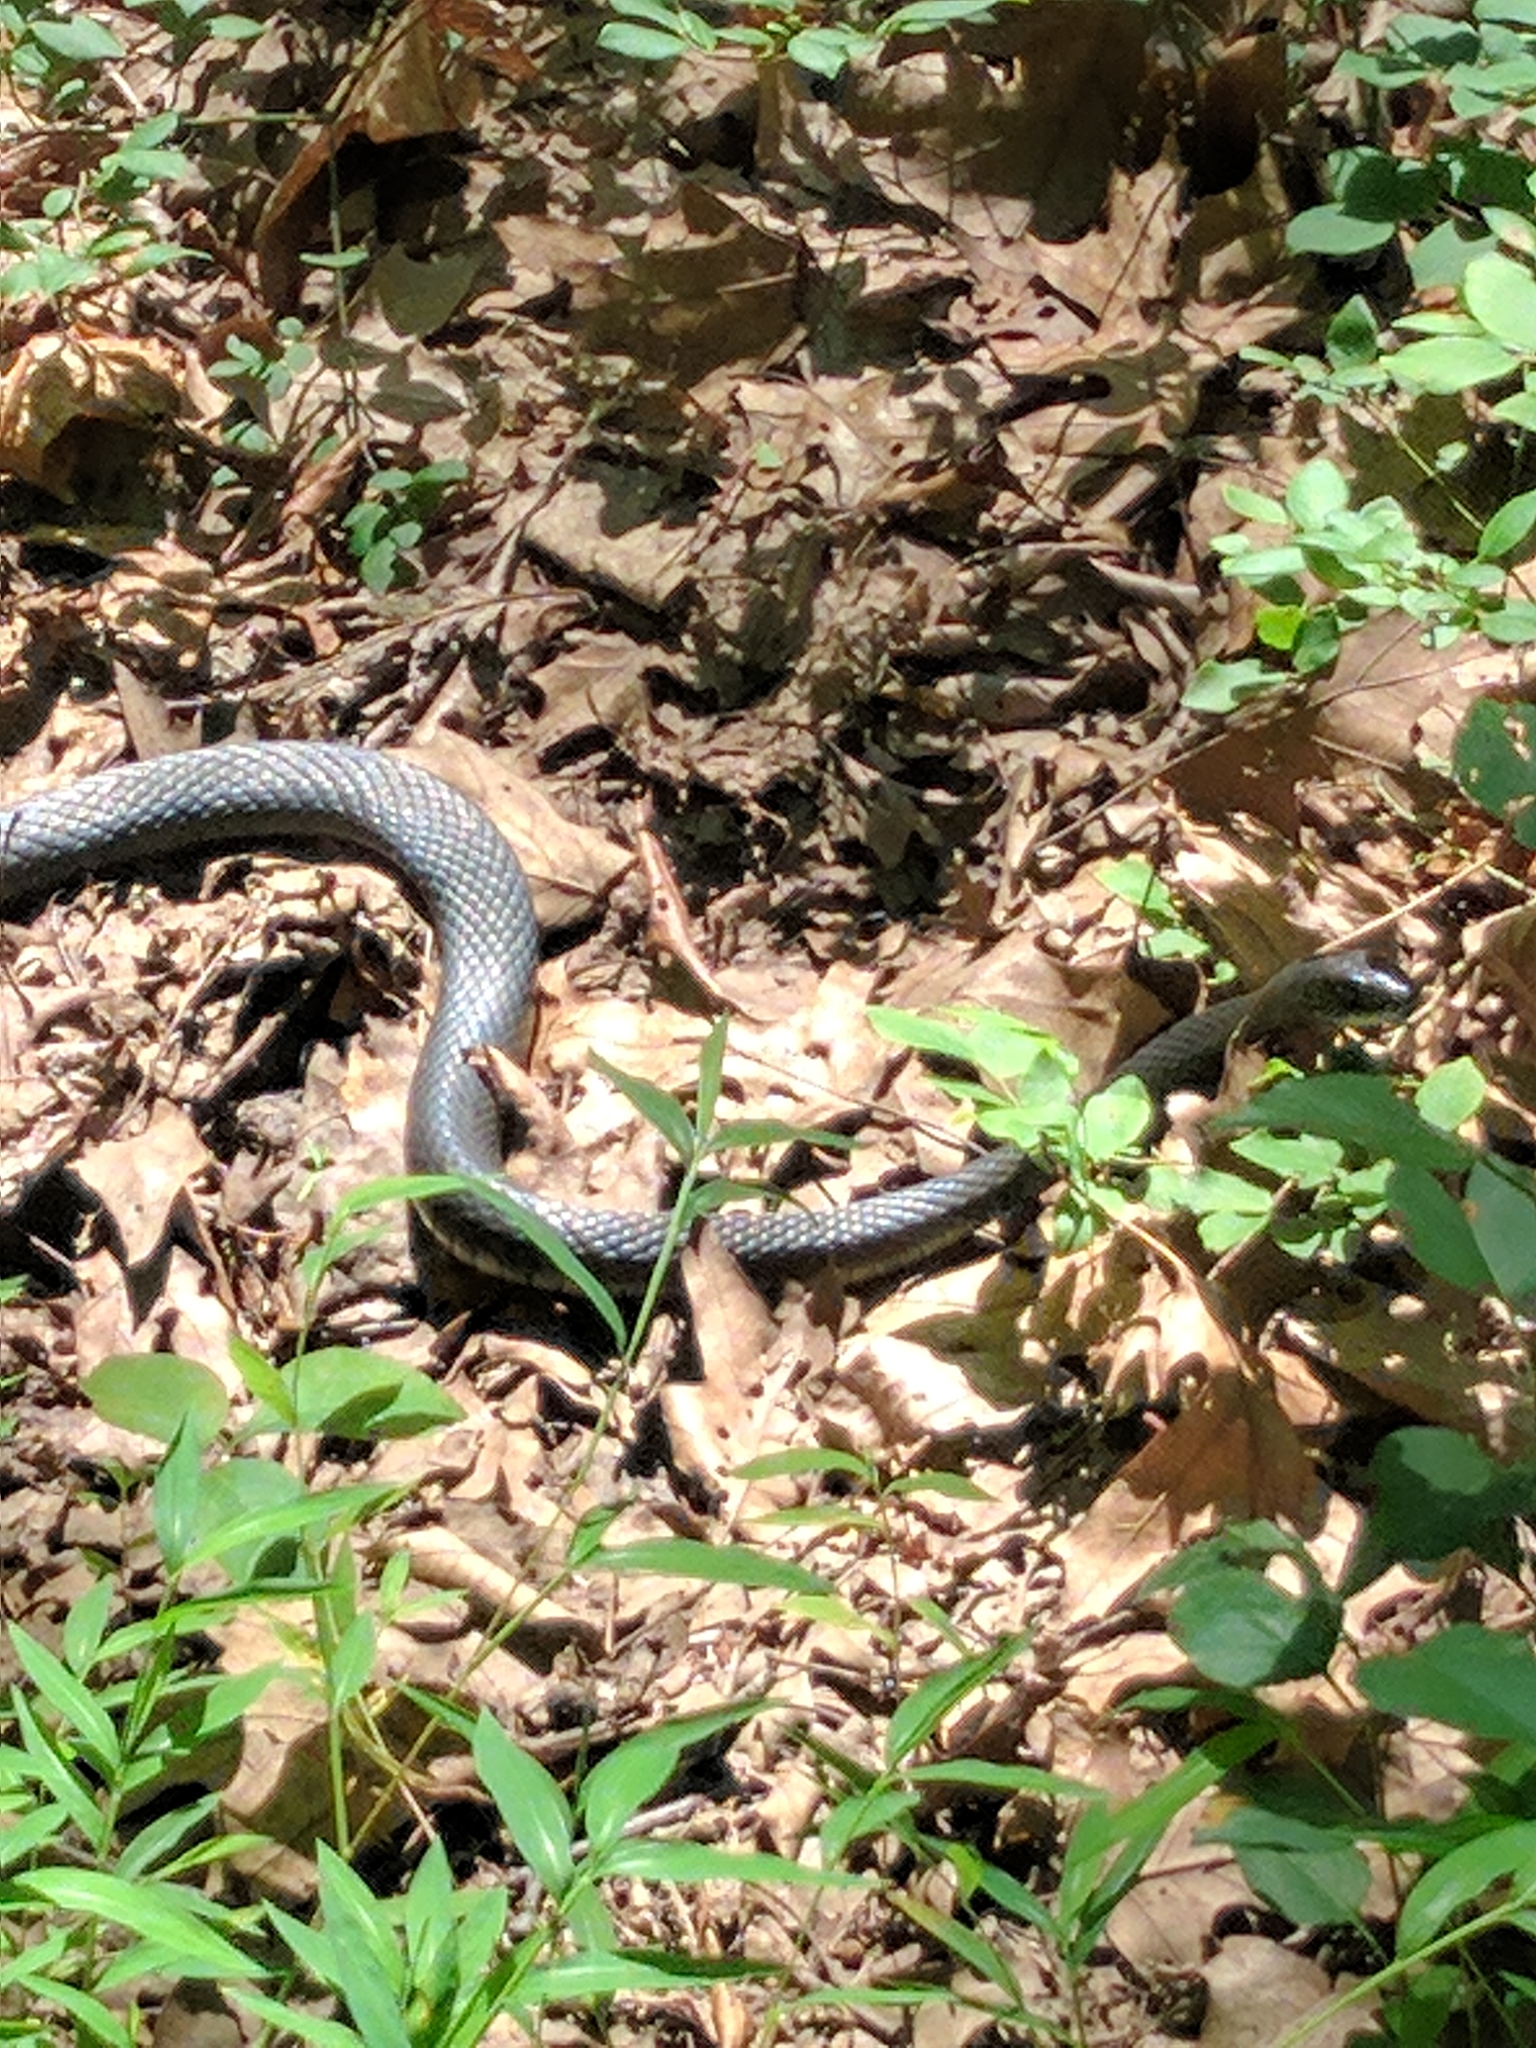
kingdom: Animalia
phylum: Chordata
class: Squamata
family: Colubridae
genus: Coluber
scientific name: Coluber constrictor
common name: Eastern racer
